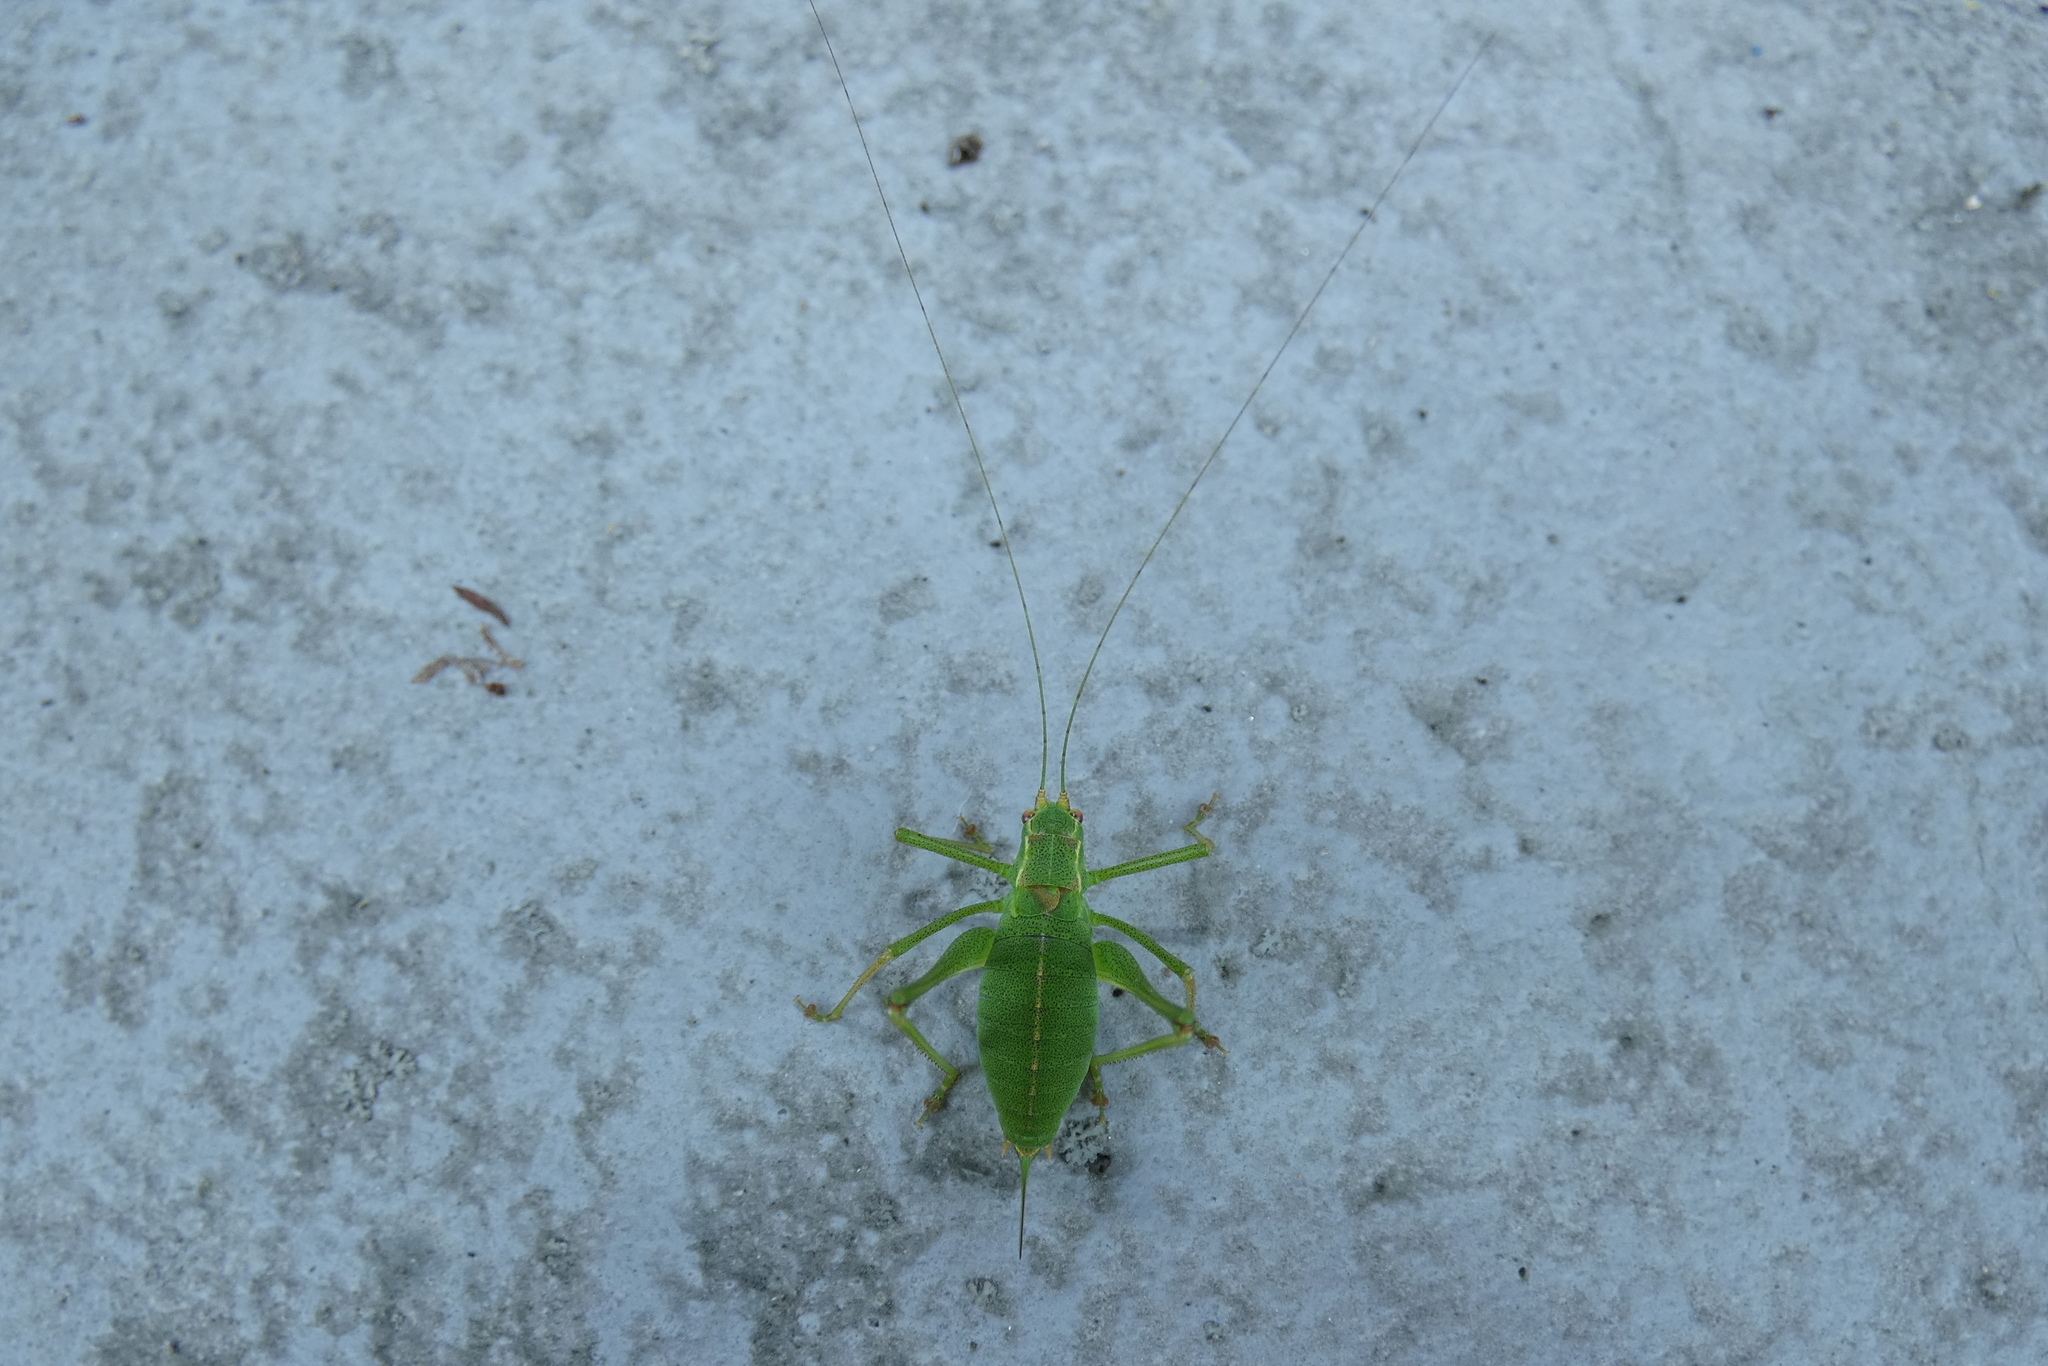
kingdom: Animalia
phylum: Arthropoda
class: Insecta
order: Orthoptera
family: Tettigoniidae
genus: Leptophyes
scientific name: Leptophyes punctatissima
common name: Speckled bush-cricket
